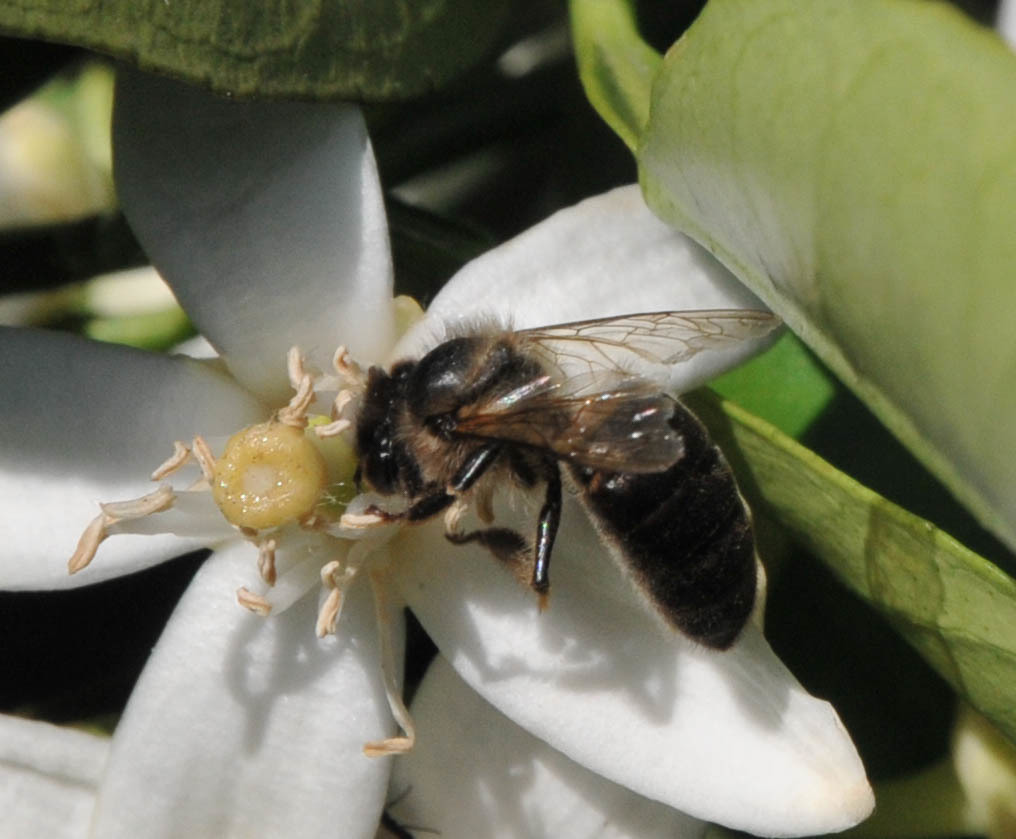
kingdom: Animalia
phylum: Arthropoda
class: Insecta
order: Hymenoptera
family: Apidae
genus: Apis
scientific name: Apis mellifera
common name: Honey bee
